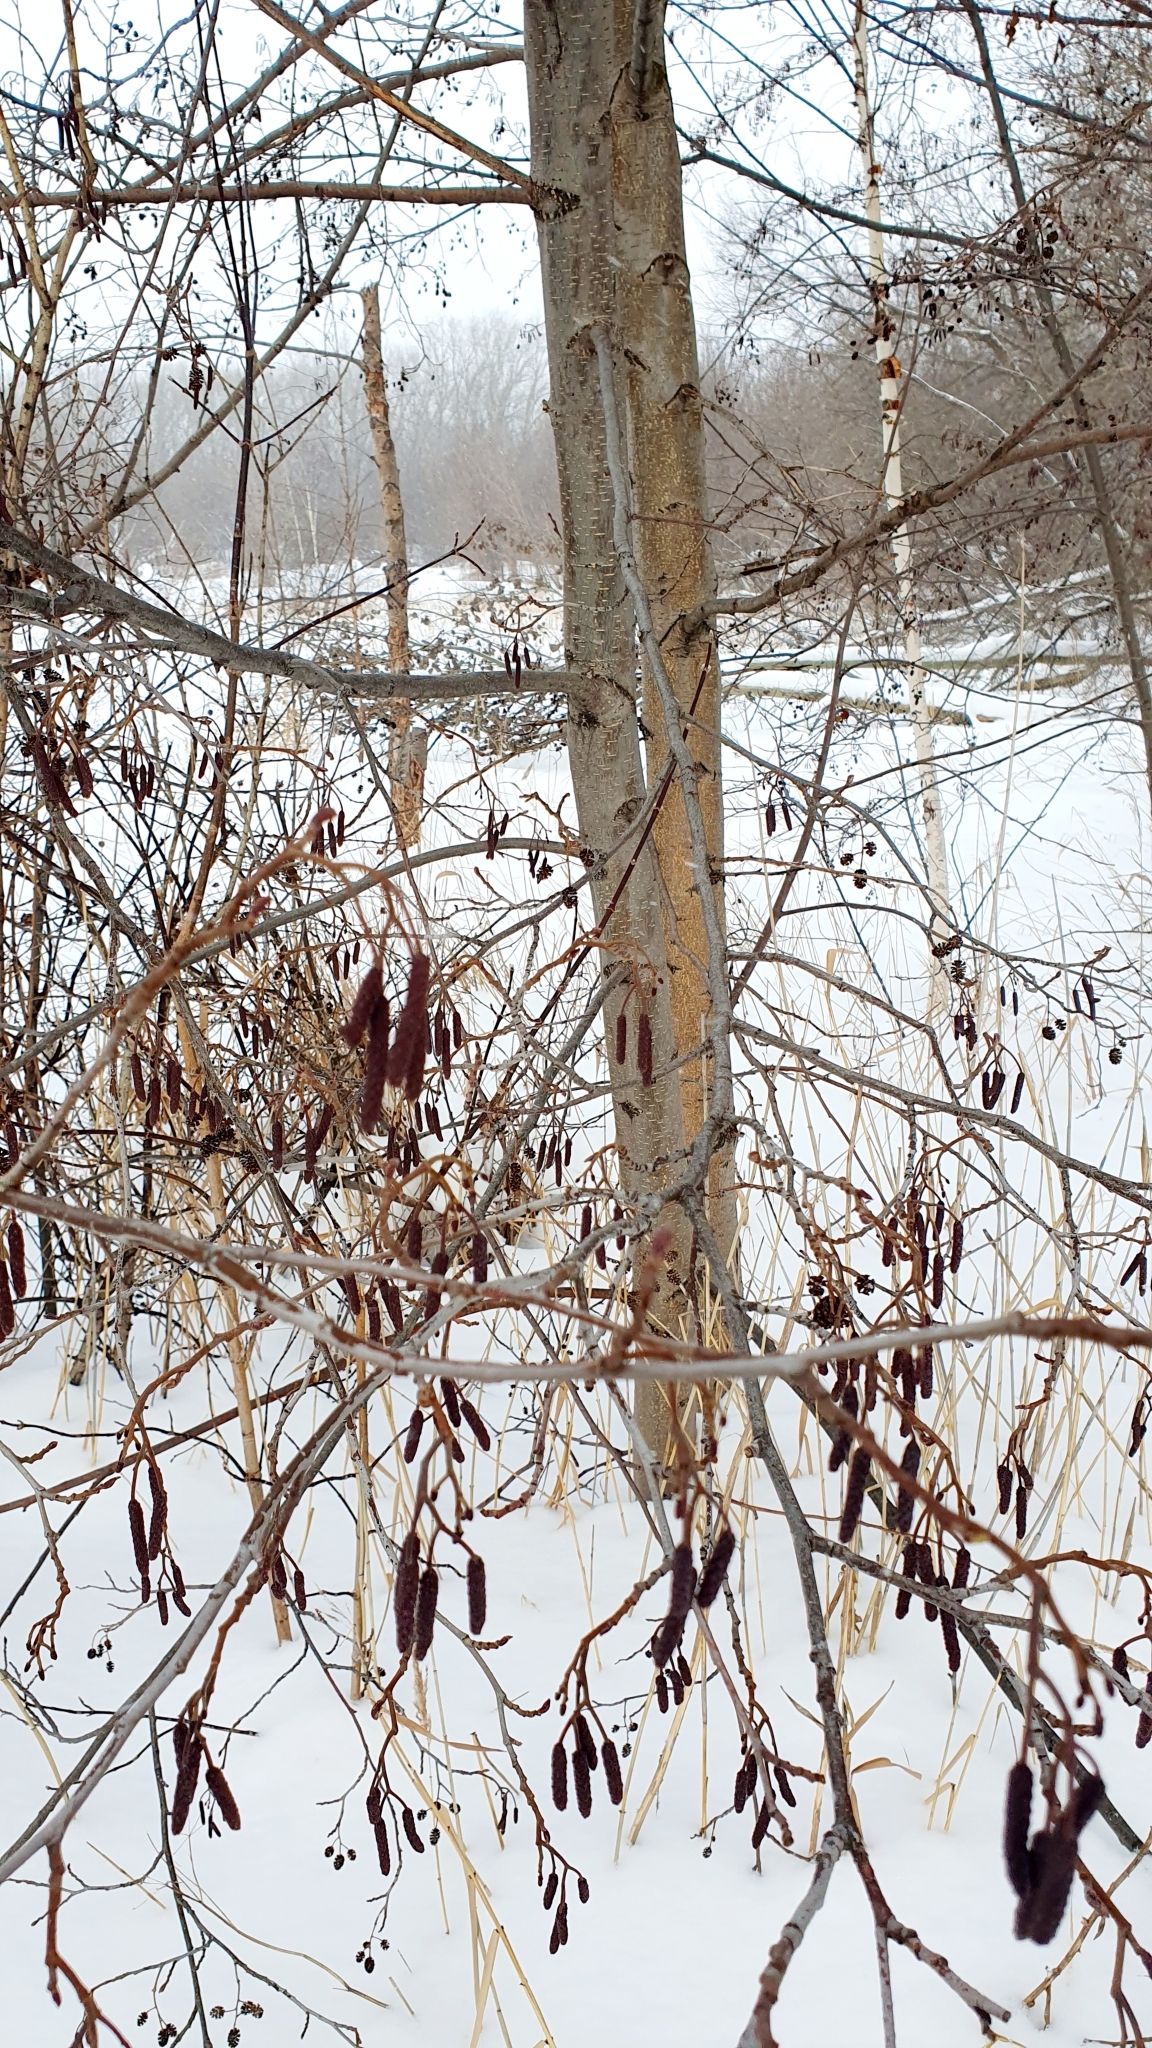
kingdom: Plantae
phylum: Tracheophyta
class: Magnoliopsida
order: Fagales
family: Betulaceae
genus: Alnus
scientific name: Alnus glutinosa
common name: Black alder
